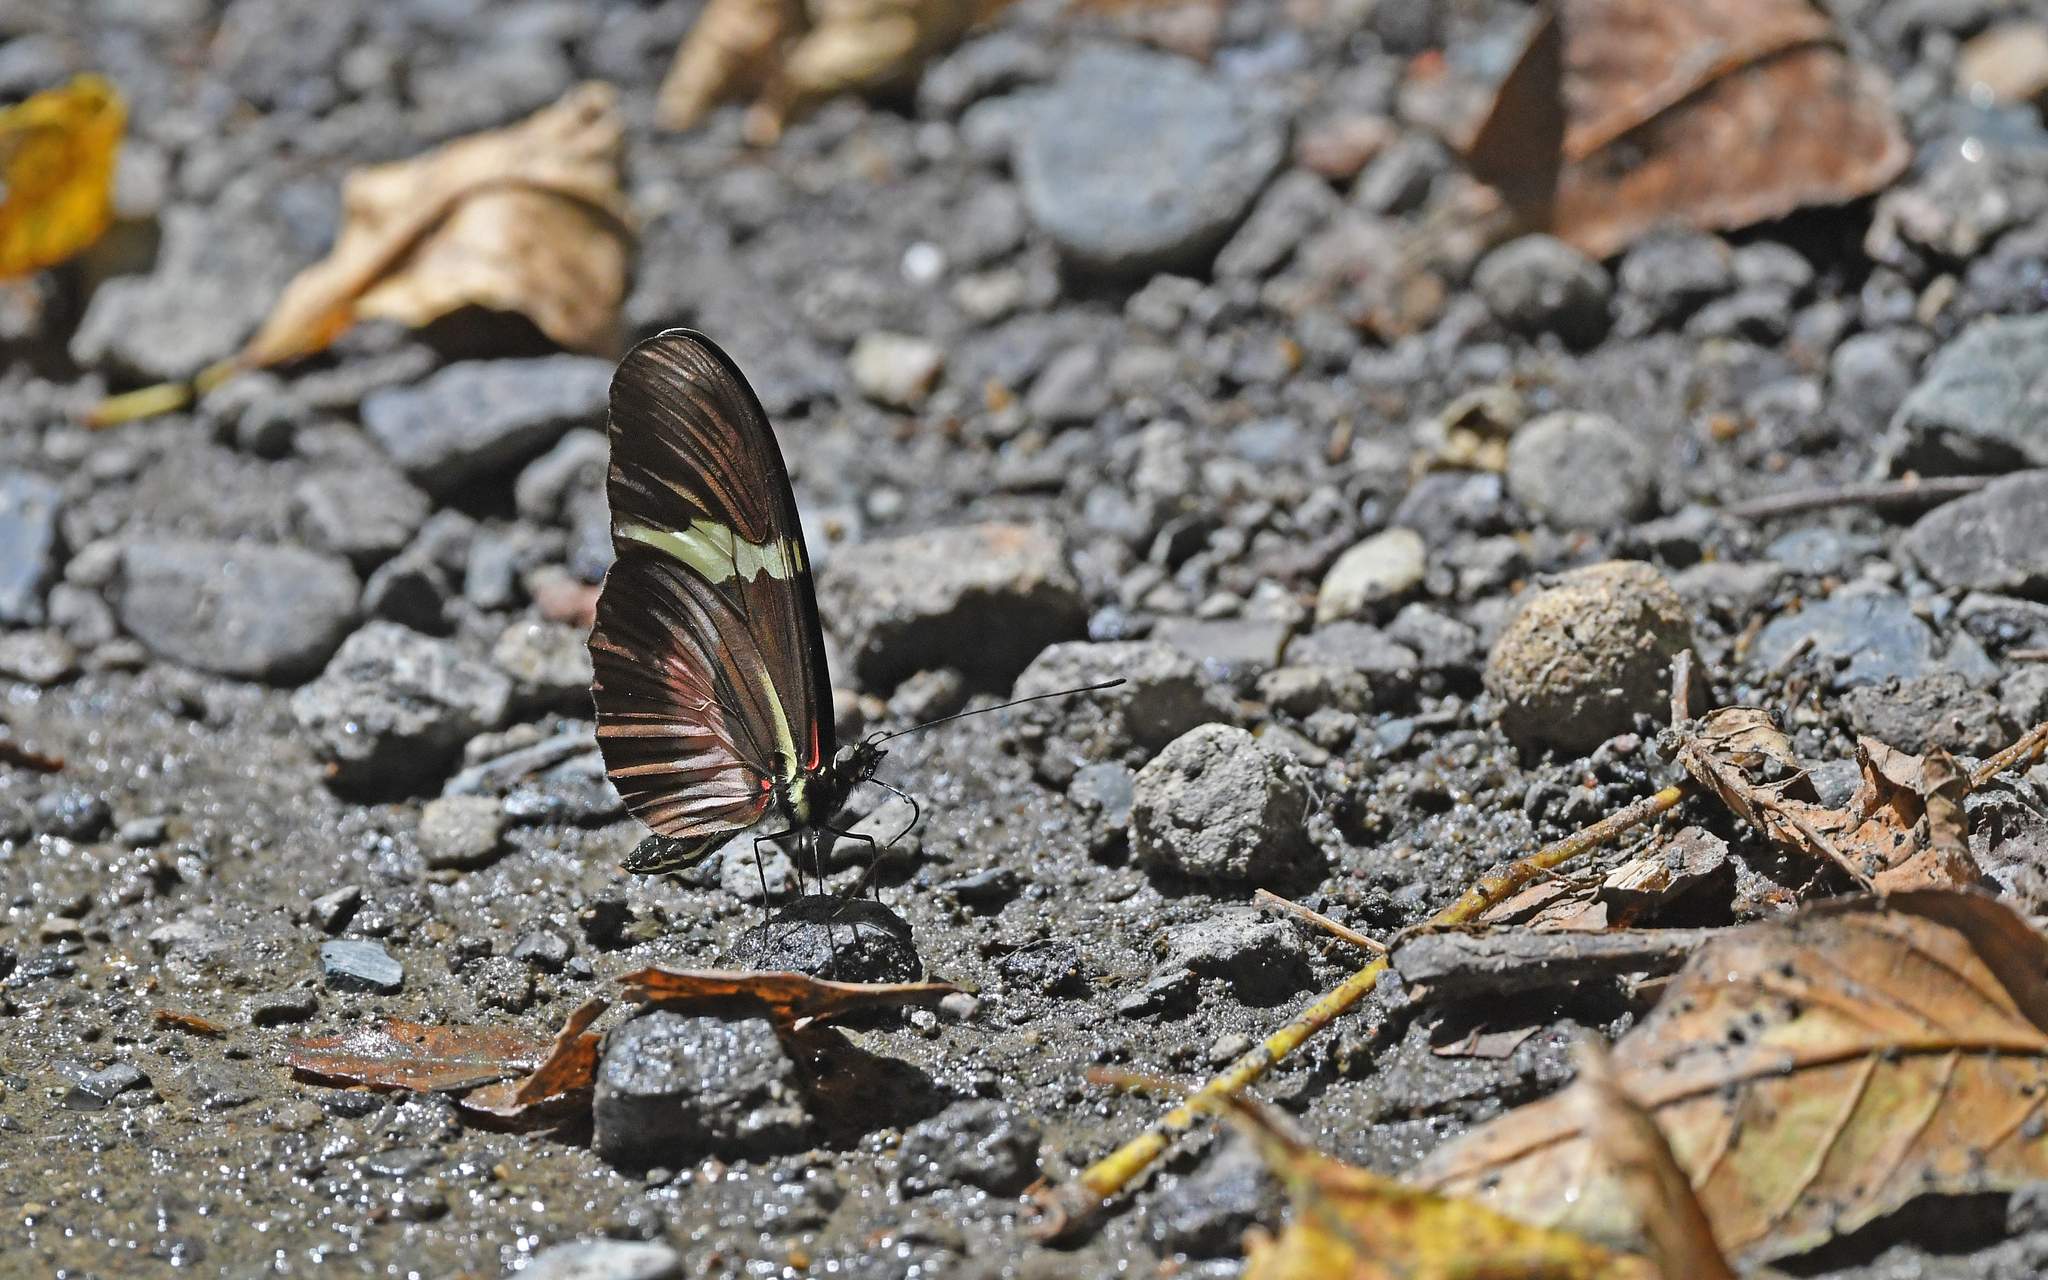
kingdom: Animalia
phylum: Arthropoda
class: Insecta
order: Lepidoptera
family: Nymphalidae
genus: Heliconius
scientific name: Heliconius clysonymus
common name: Clysonymus longwing
